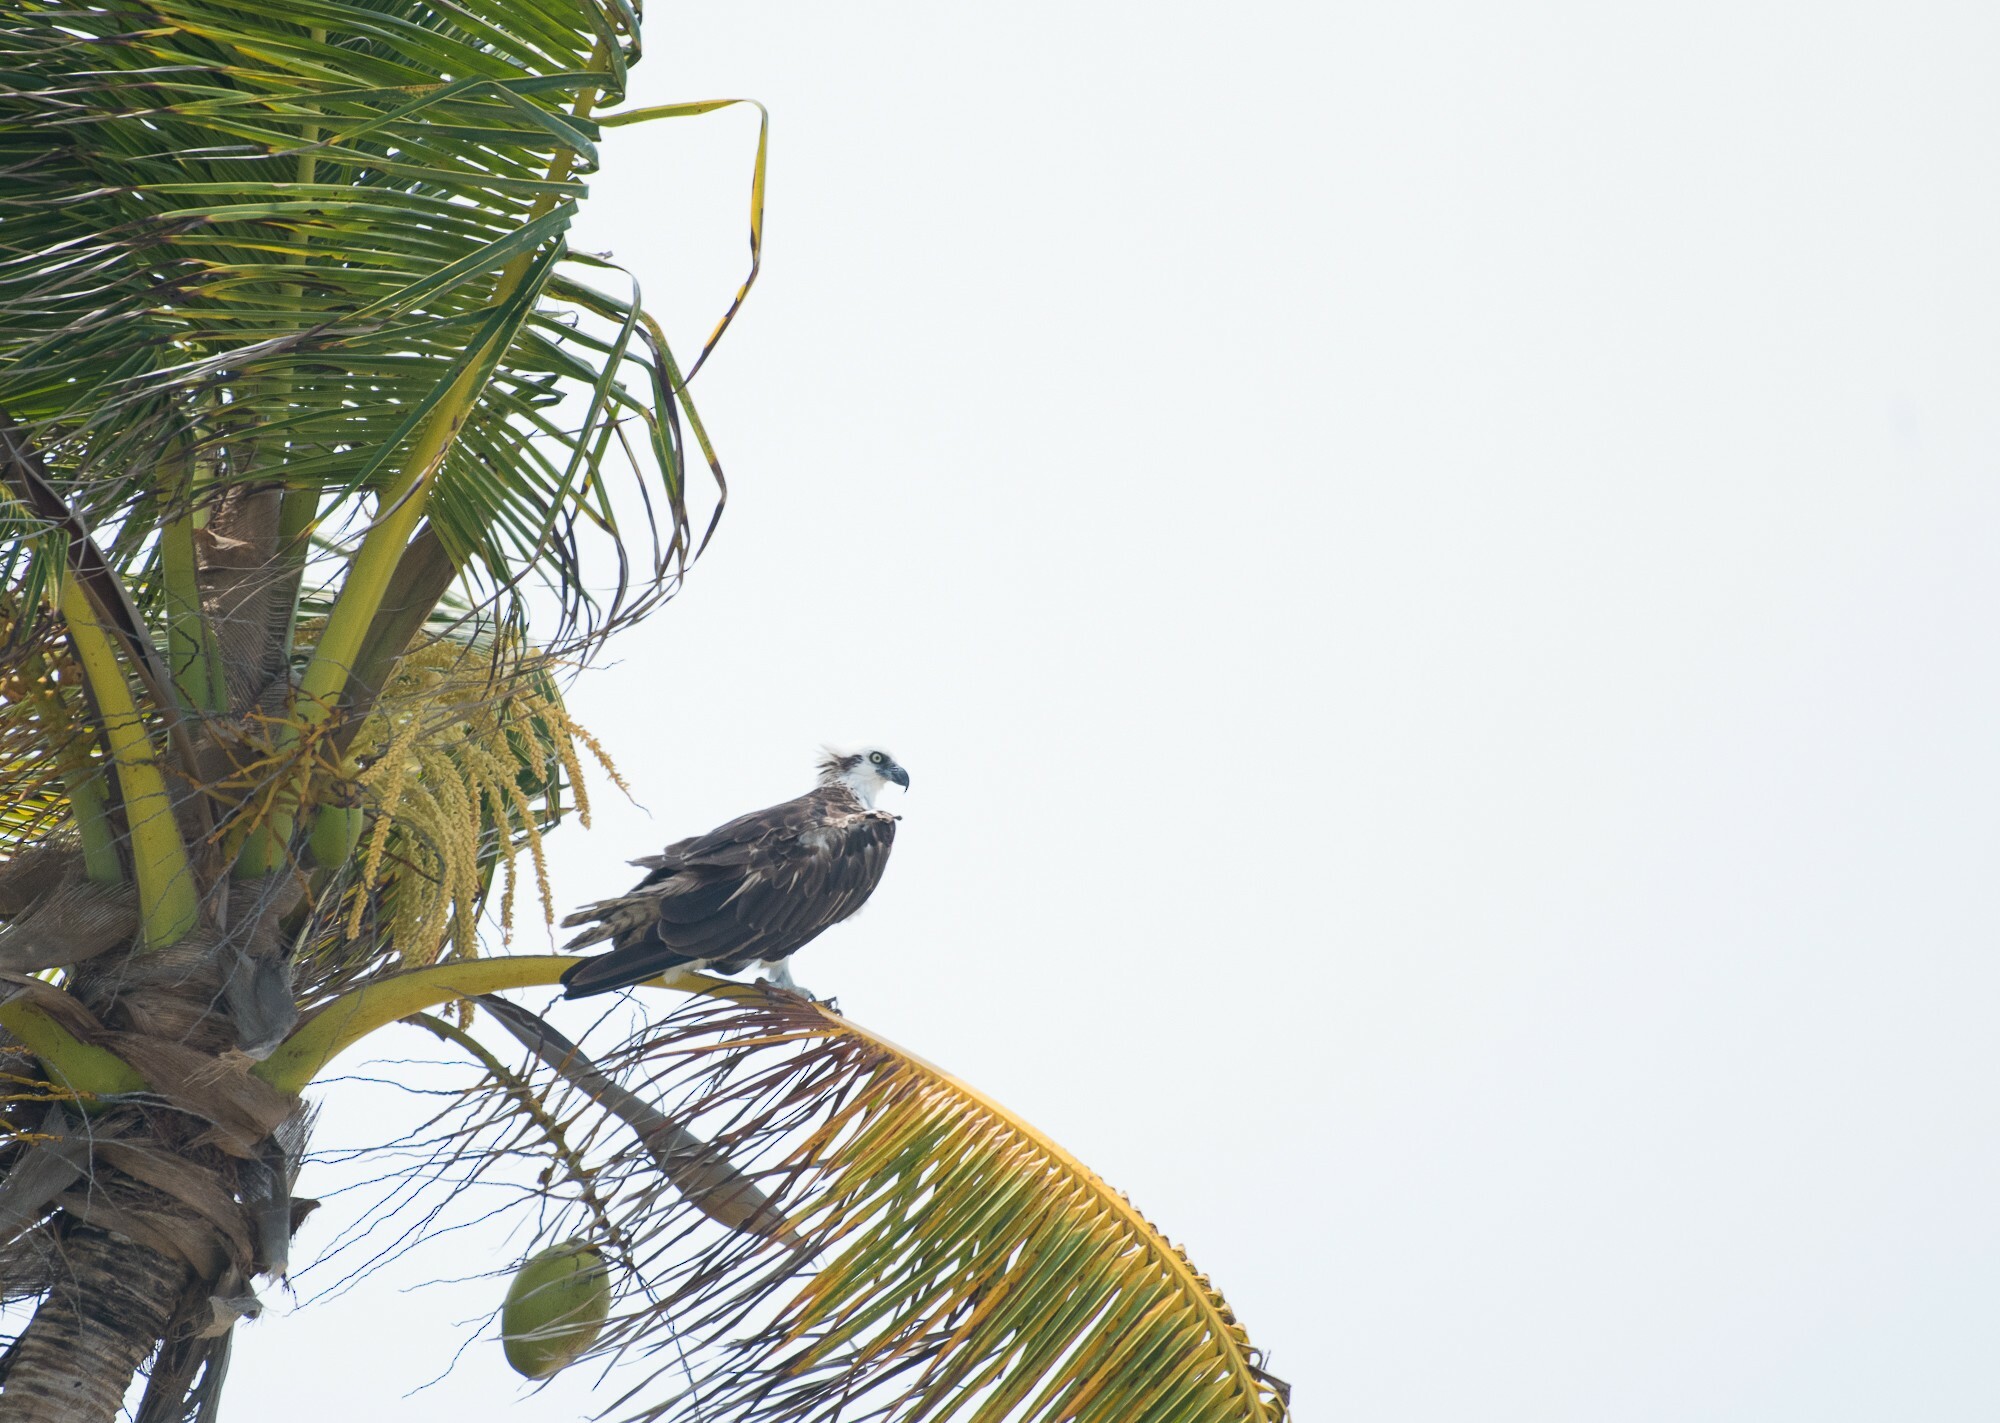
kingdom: Animalia
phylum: Chordata
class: Aves
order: Accipitriformes
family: Pandionidae
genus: Pandion
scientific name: Pandion haliaetus
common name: Osprey
